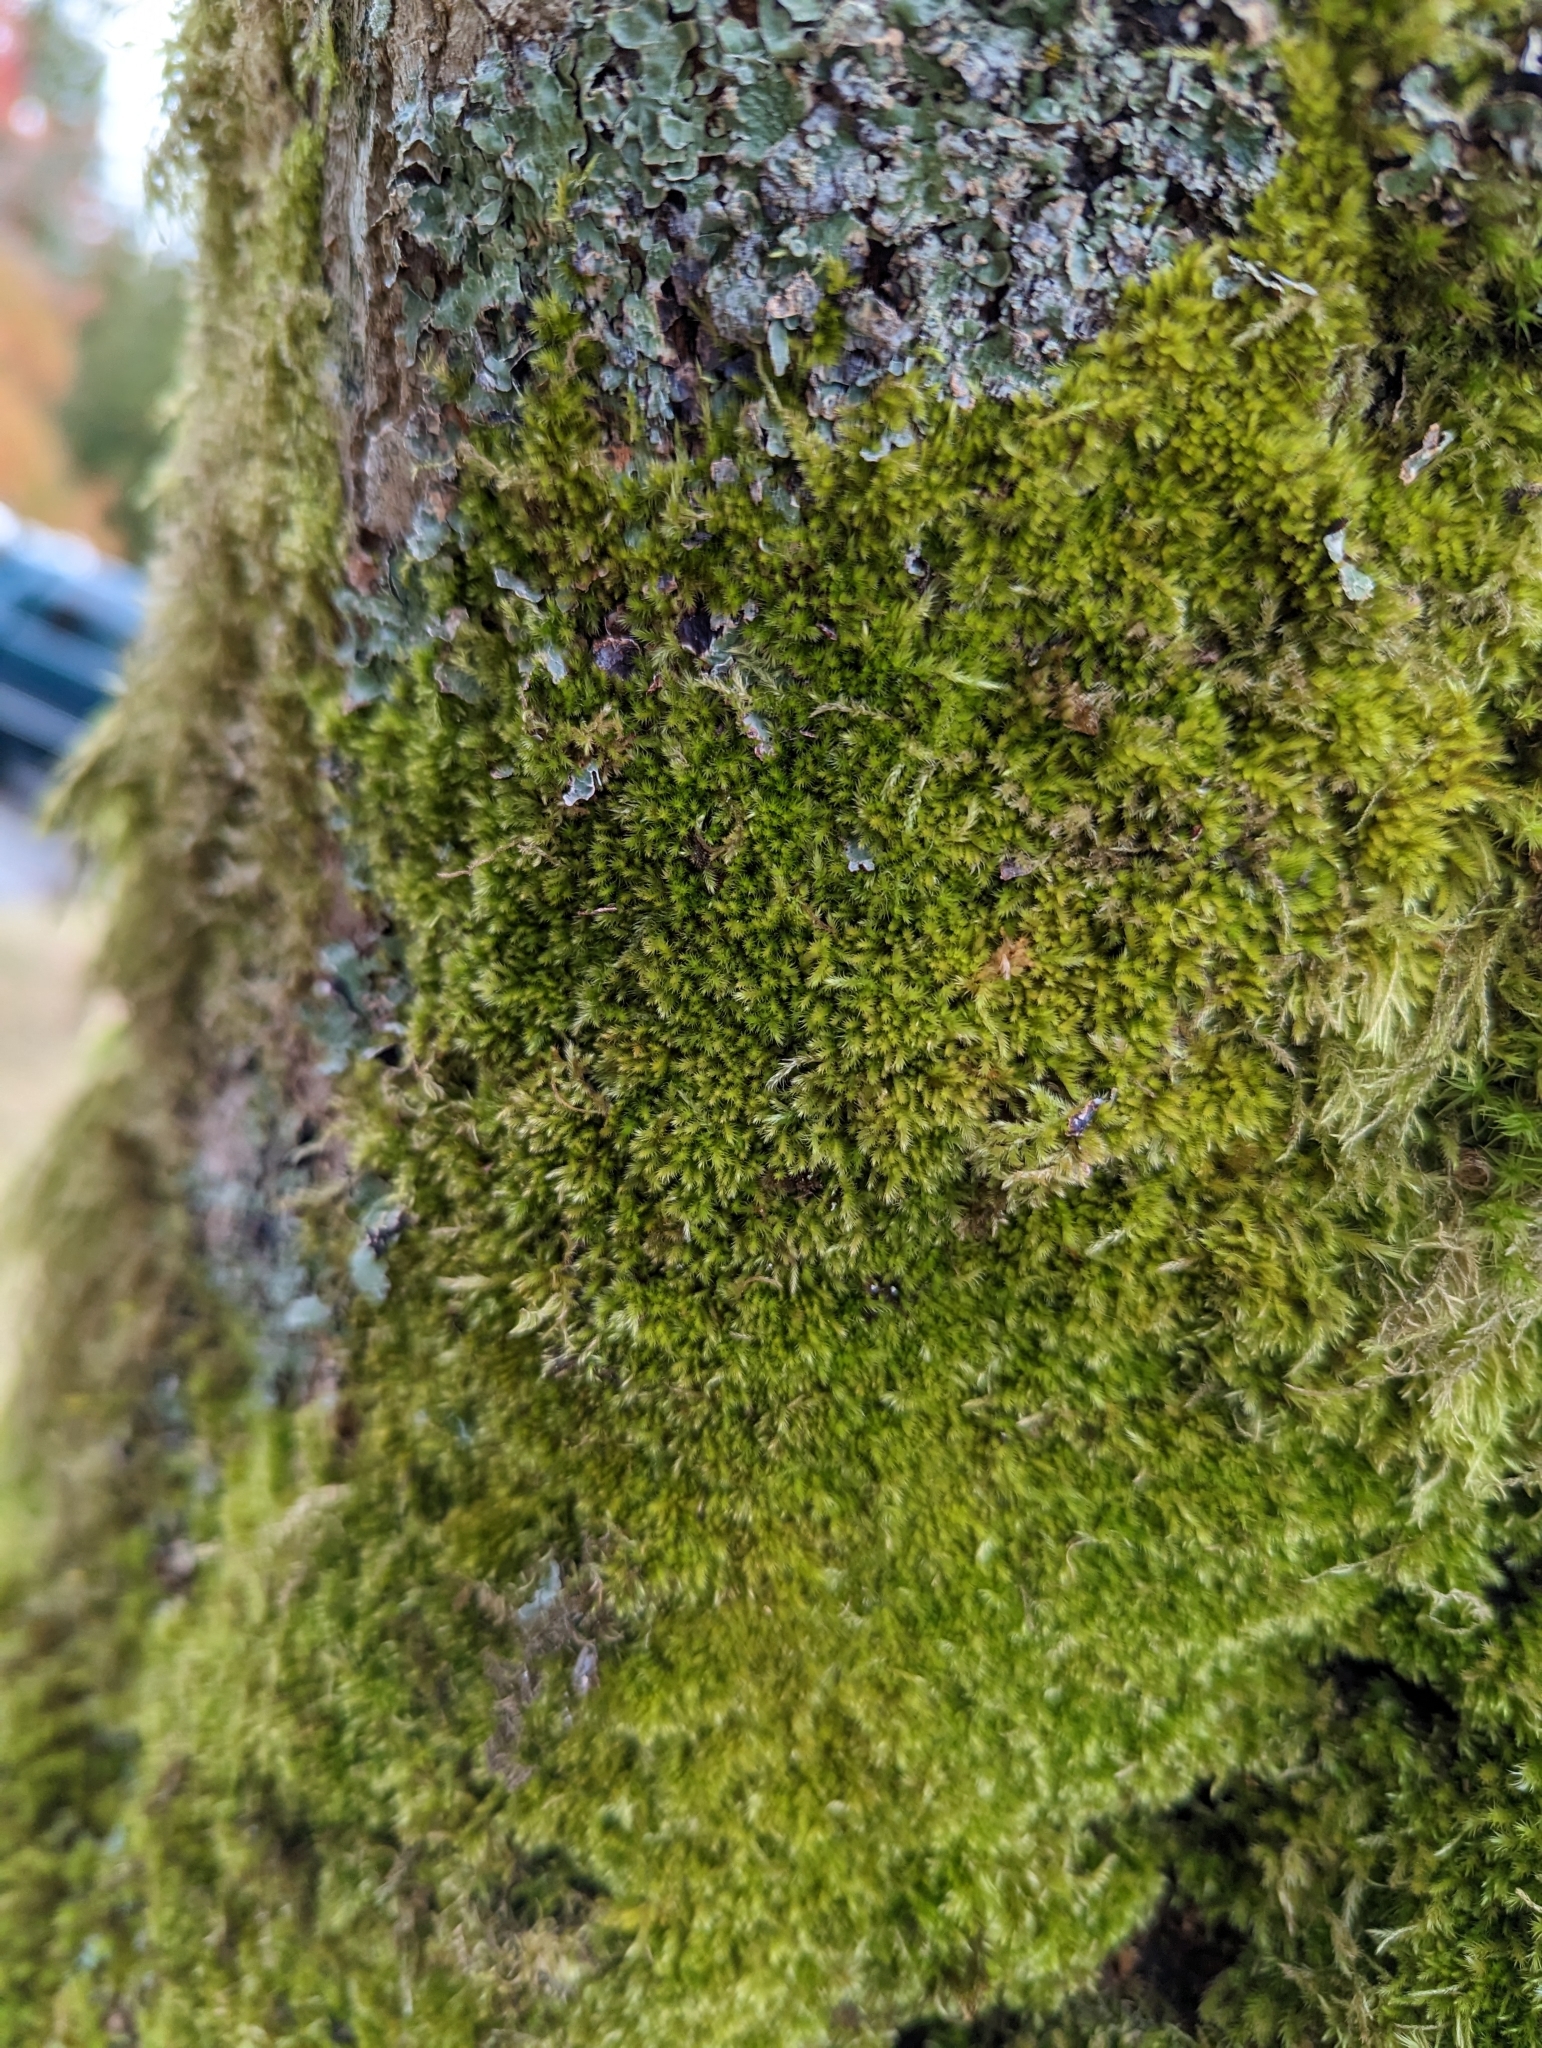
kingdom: Plantae
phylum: Bryophyta
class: Bryopsida
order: Hypnales
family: Brachytheciaceae
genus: Homalothecium
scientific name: Homalothecium nuttallii
